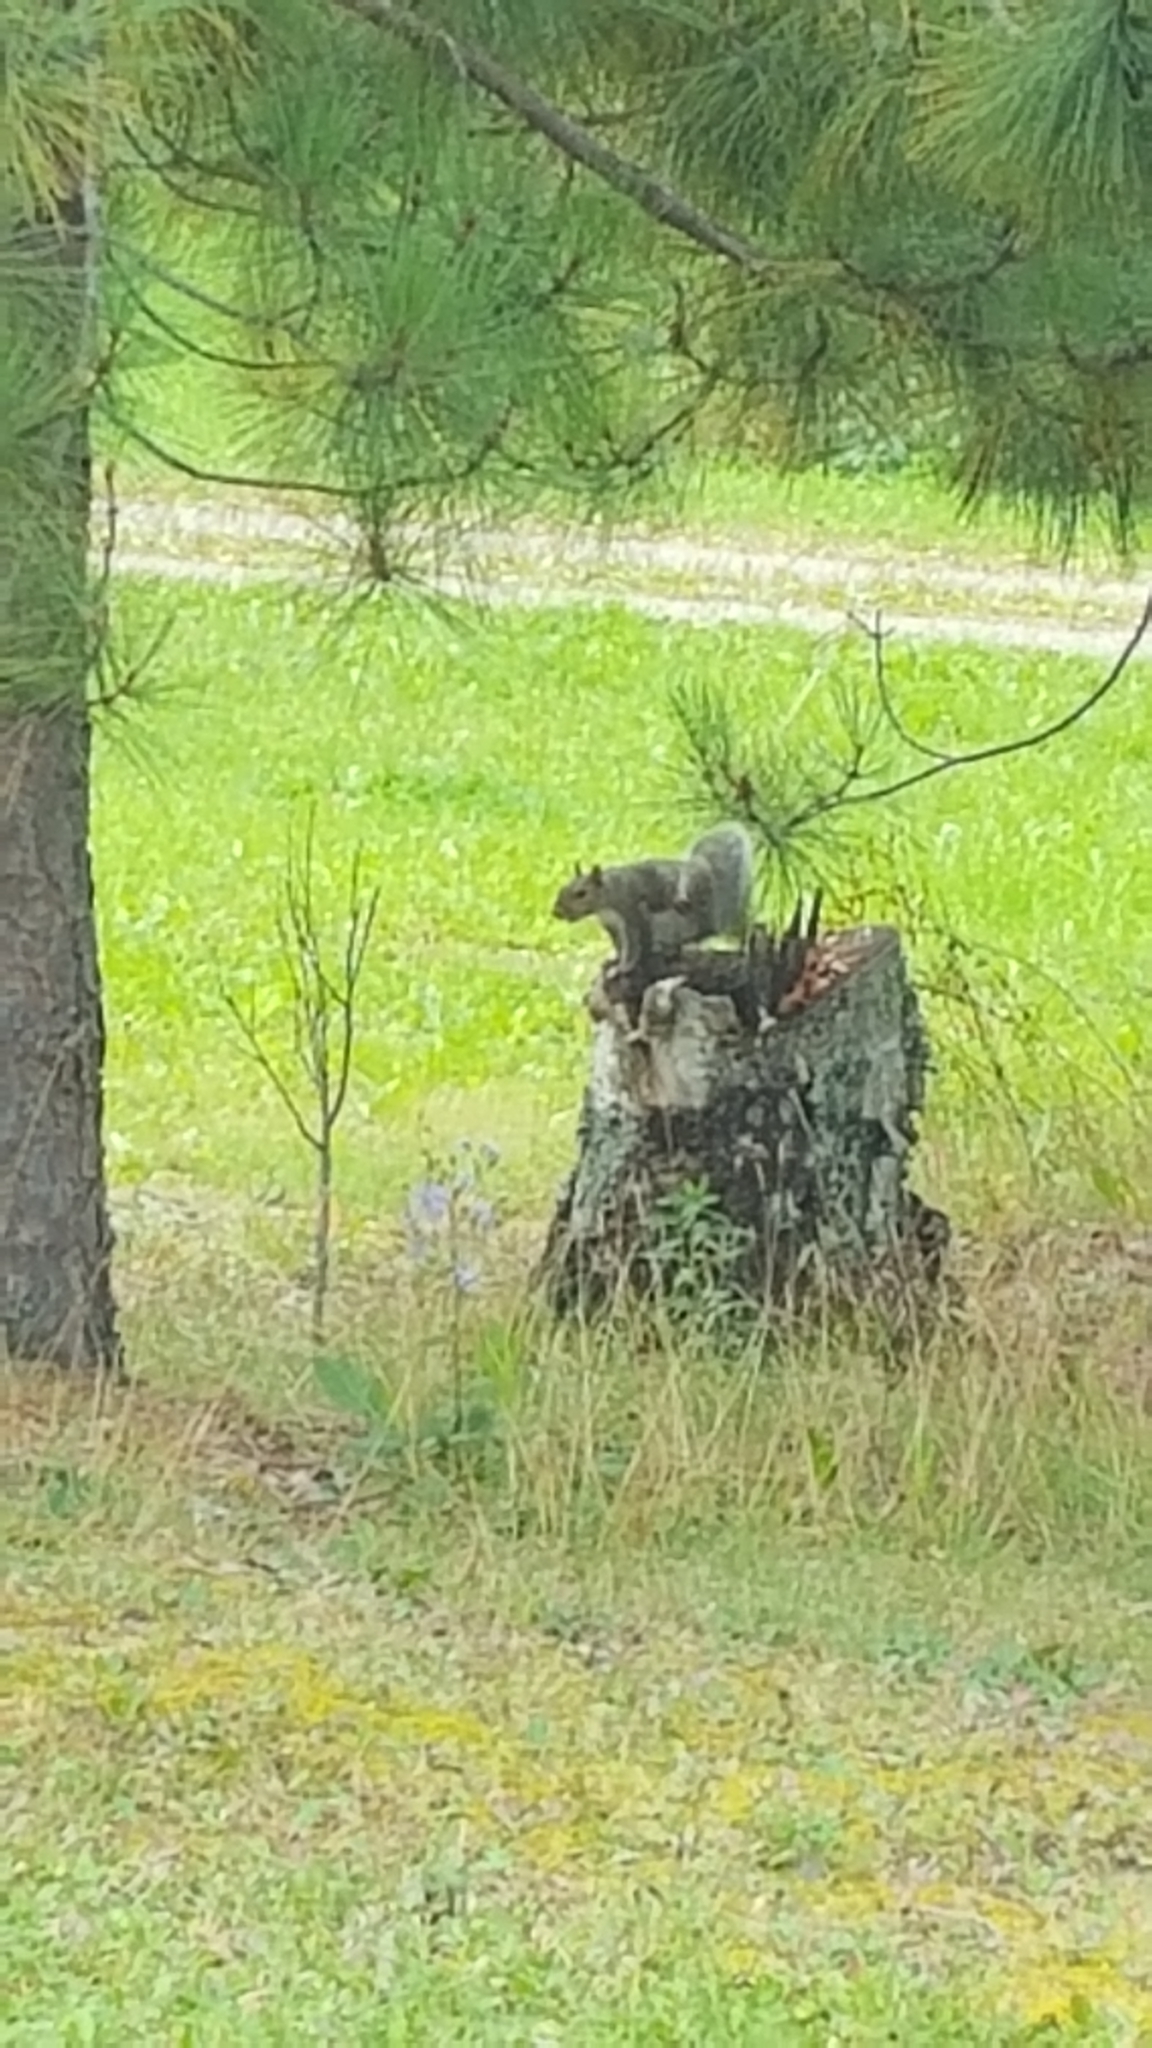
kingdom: Animalia
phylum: Chordata
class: Mammalia
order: Rodentia
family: Sciuridae
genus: Sciurus
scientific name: Sciurus carolinensis
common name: Eastern gray squirrel
